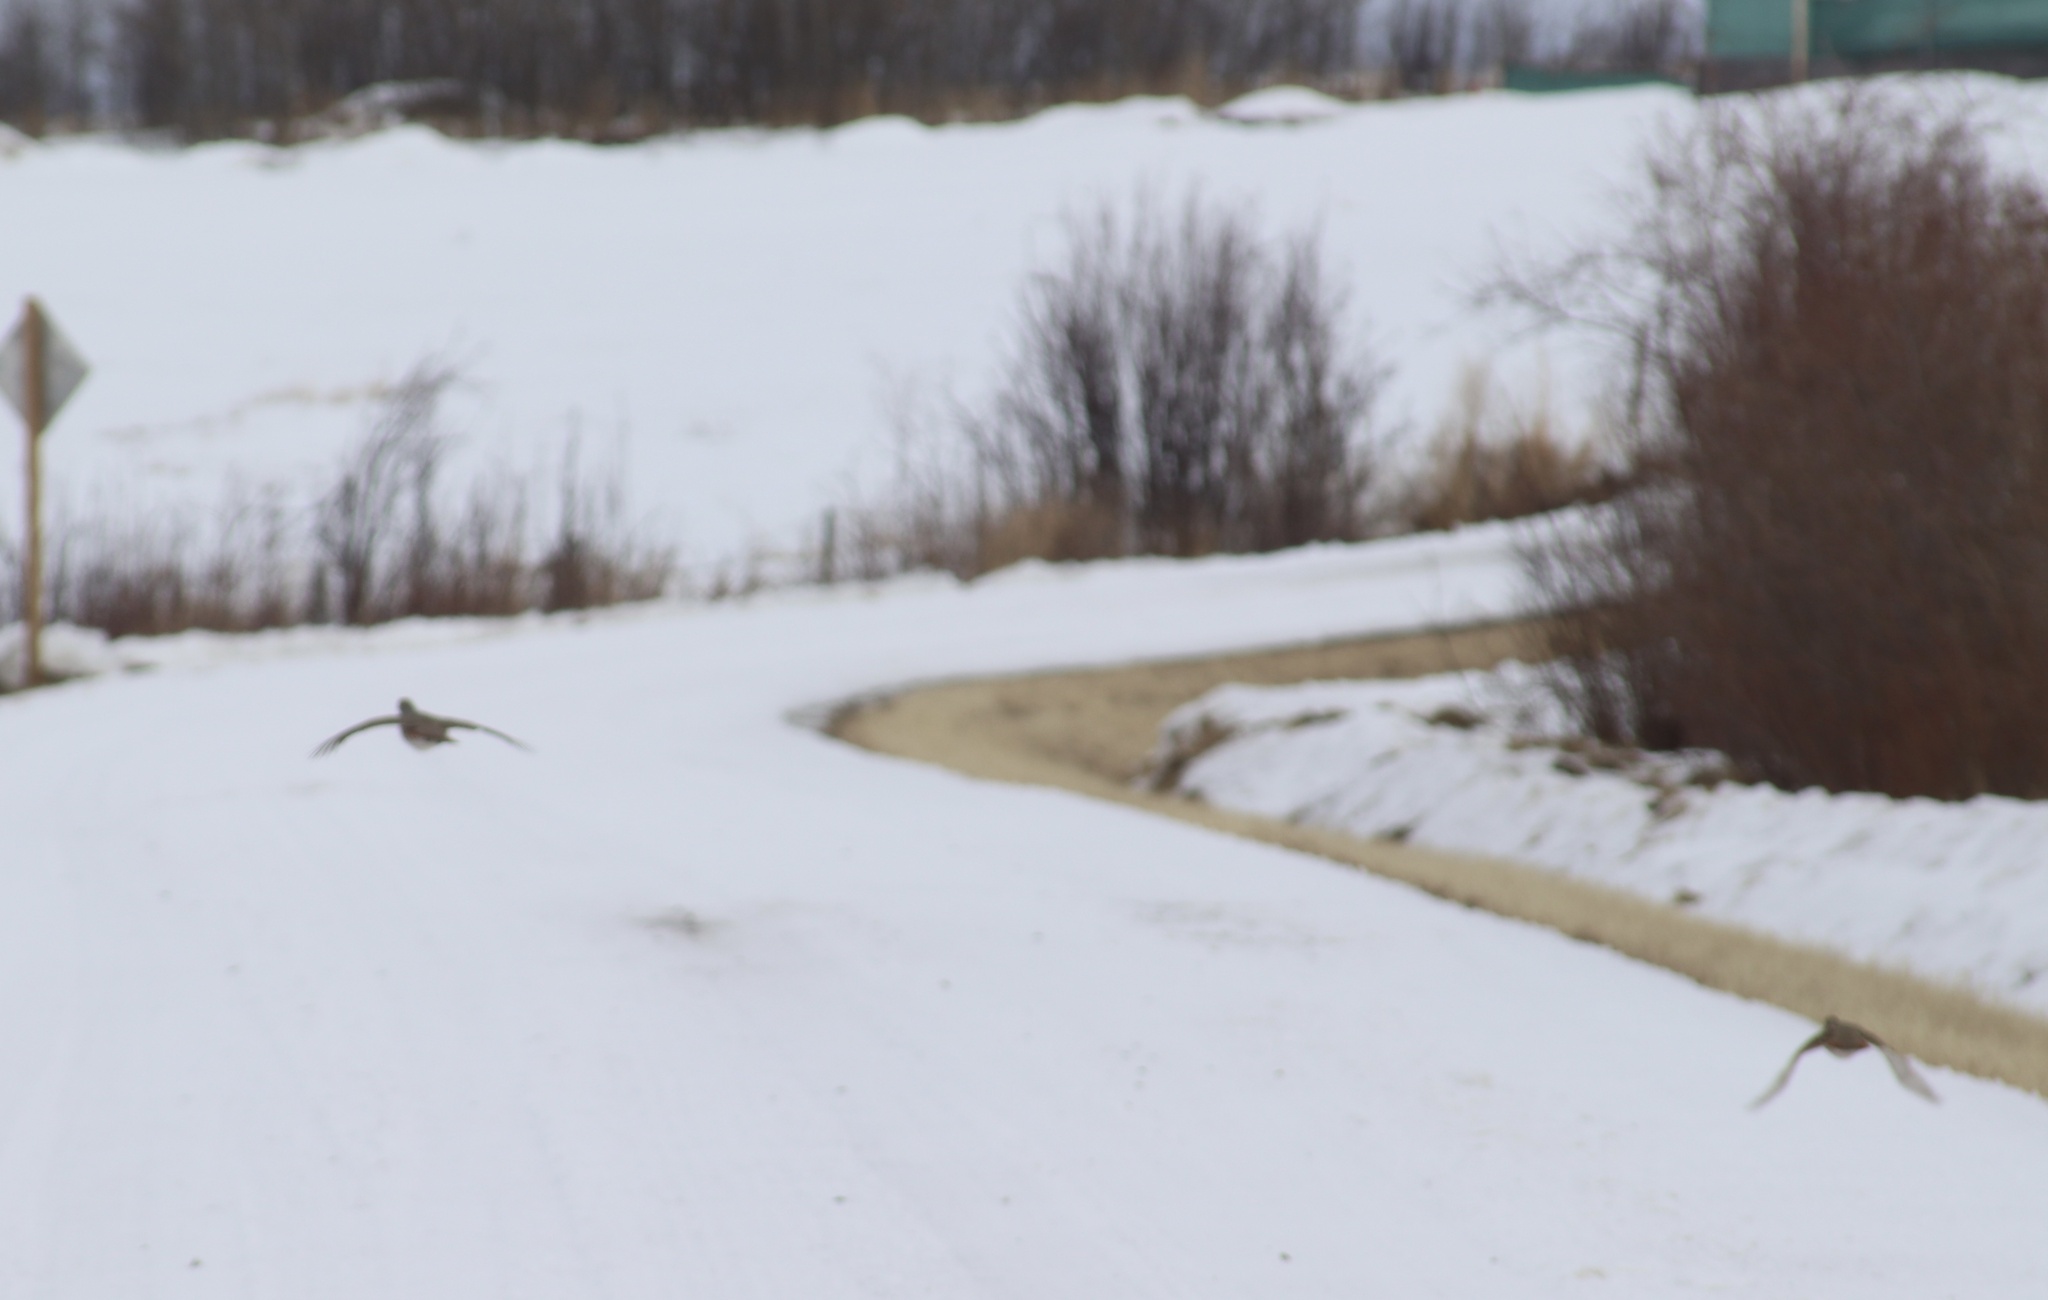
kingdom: Animalia
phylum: Chordata
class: Aves
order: Galliformes
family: Phasianidae
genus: Perdix
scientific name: Perdix perdix
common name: Grey partridge
